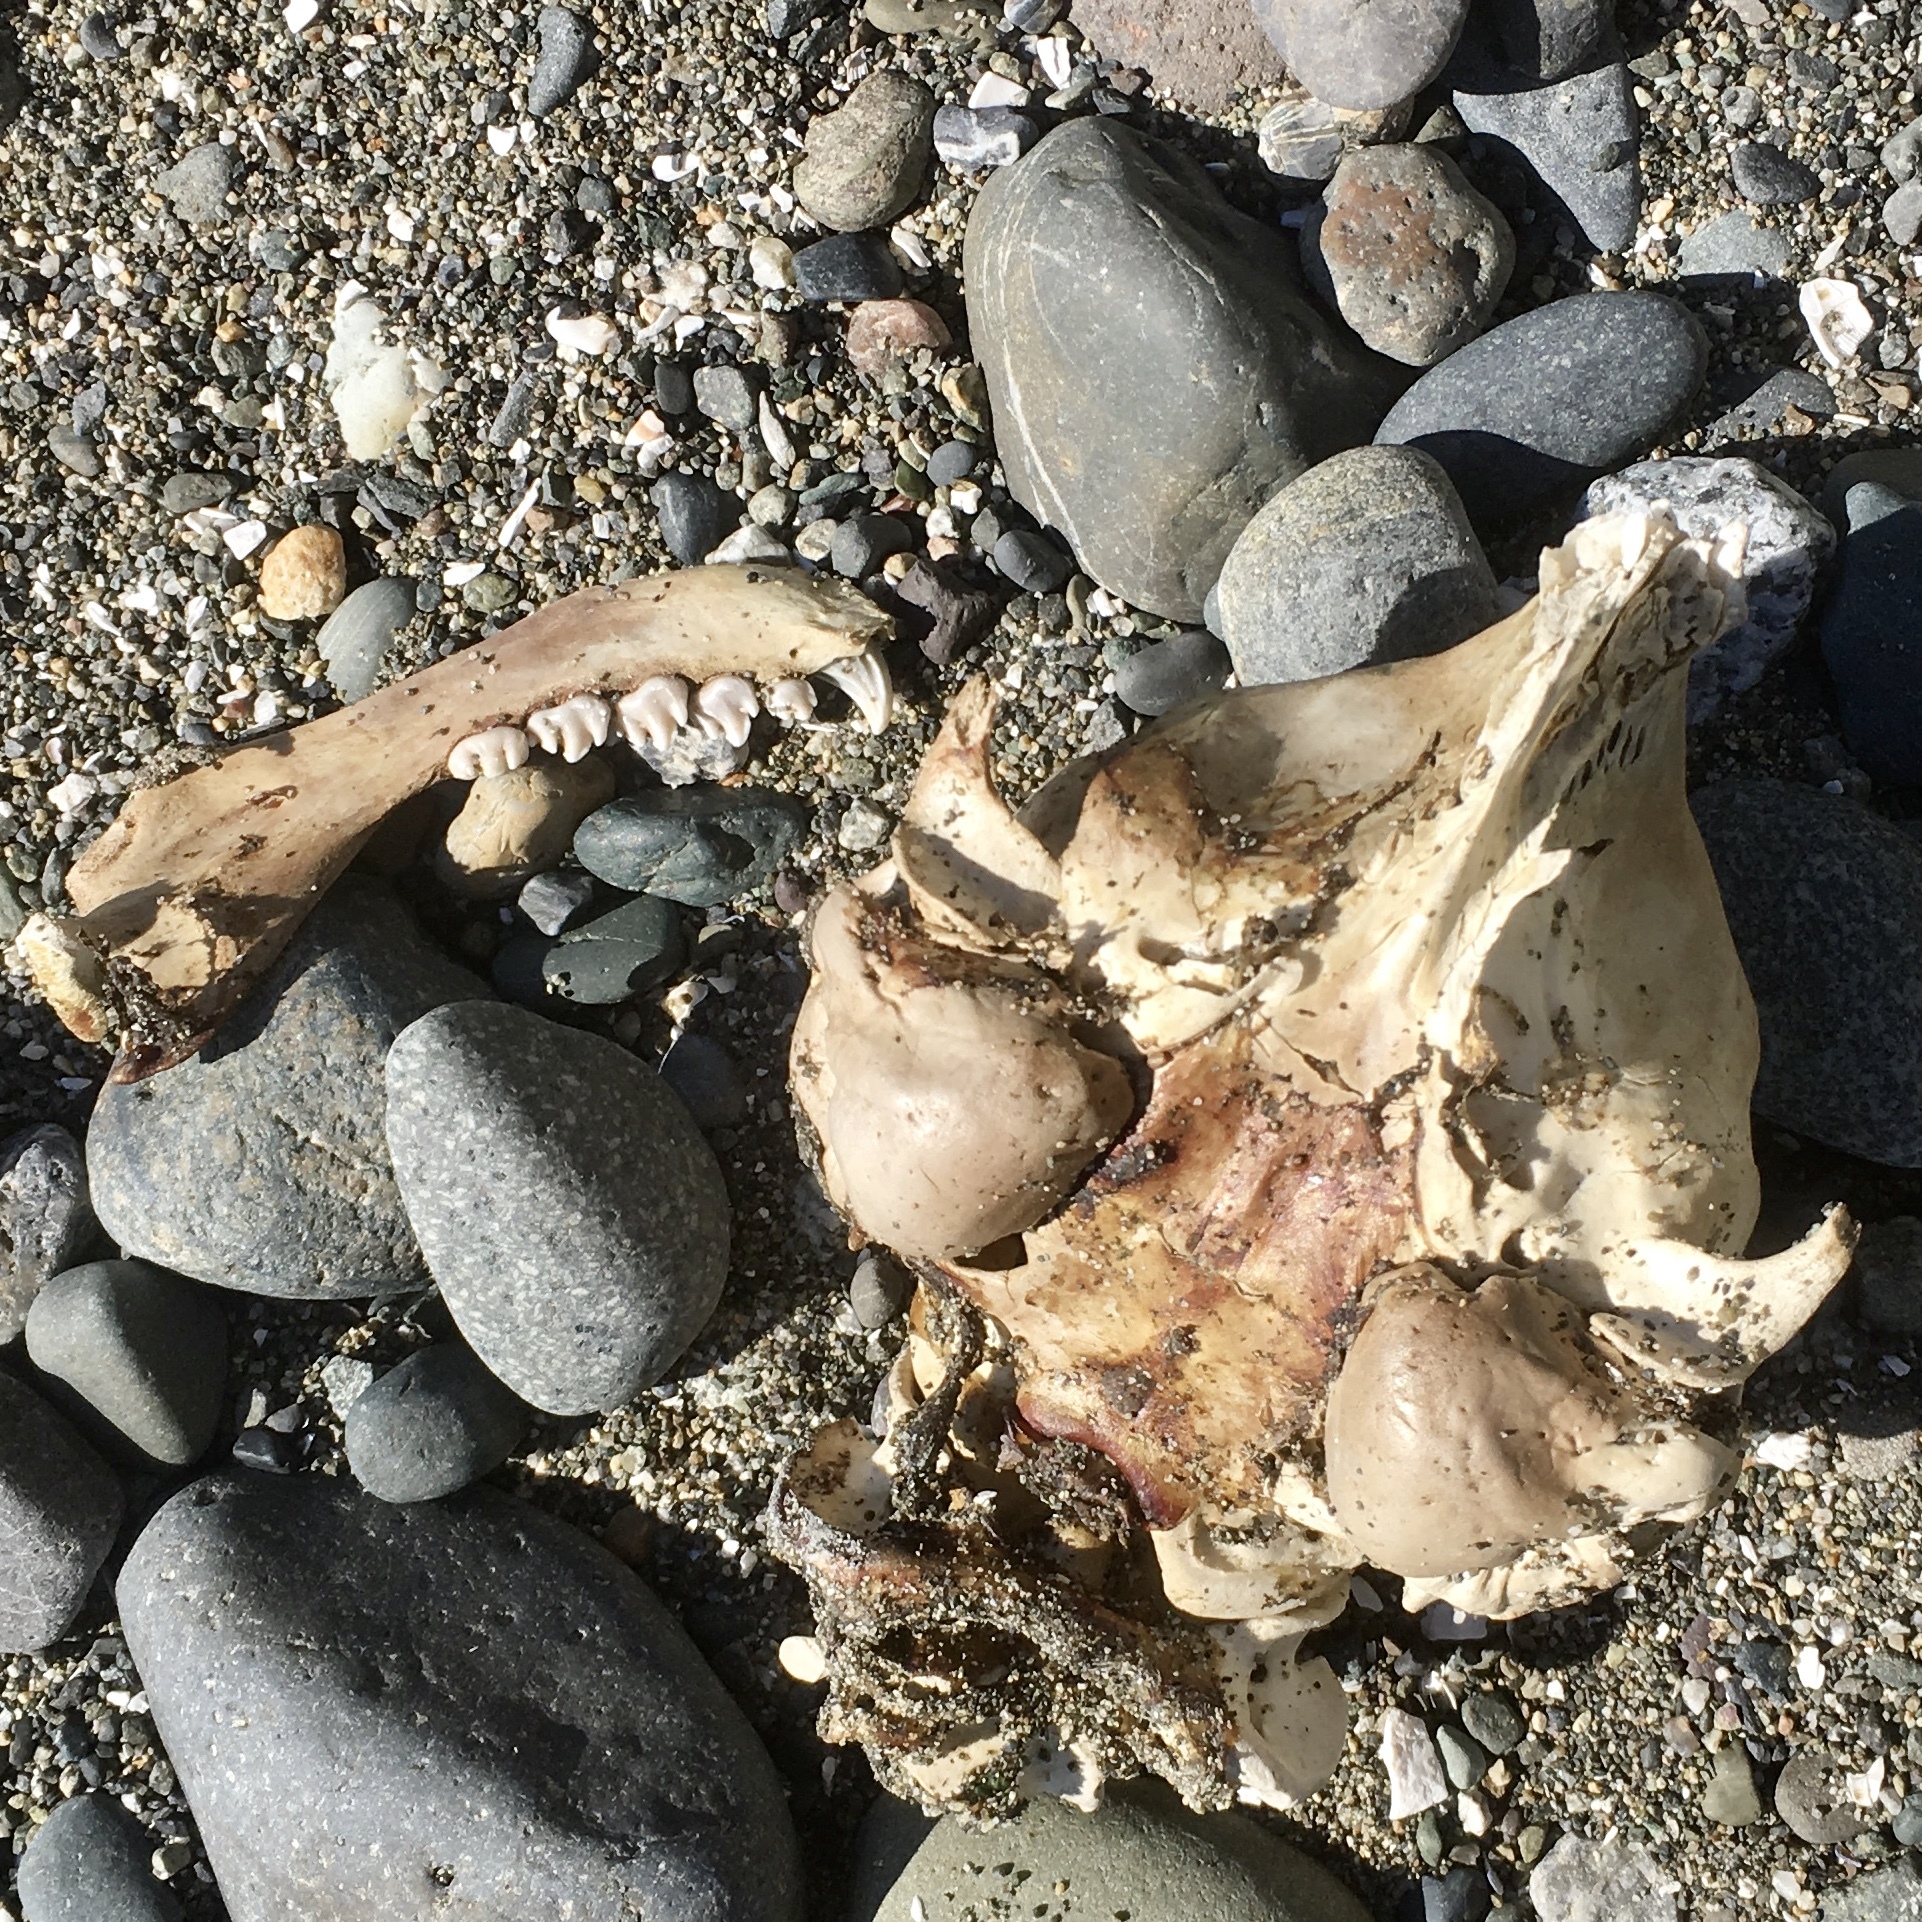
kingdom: Animalia
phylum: Chordata
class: Mammalia
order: Carnivora
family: Phocidae
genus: Phoca
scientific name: Phoca vitulina
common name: Harbor seal
